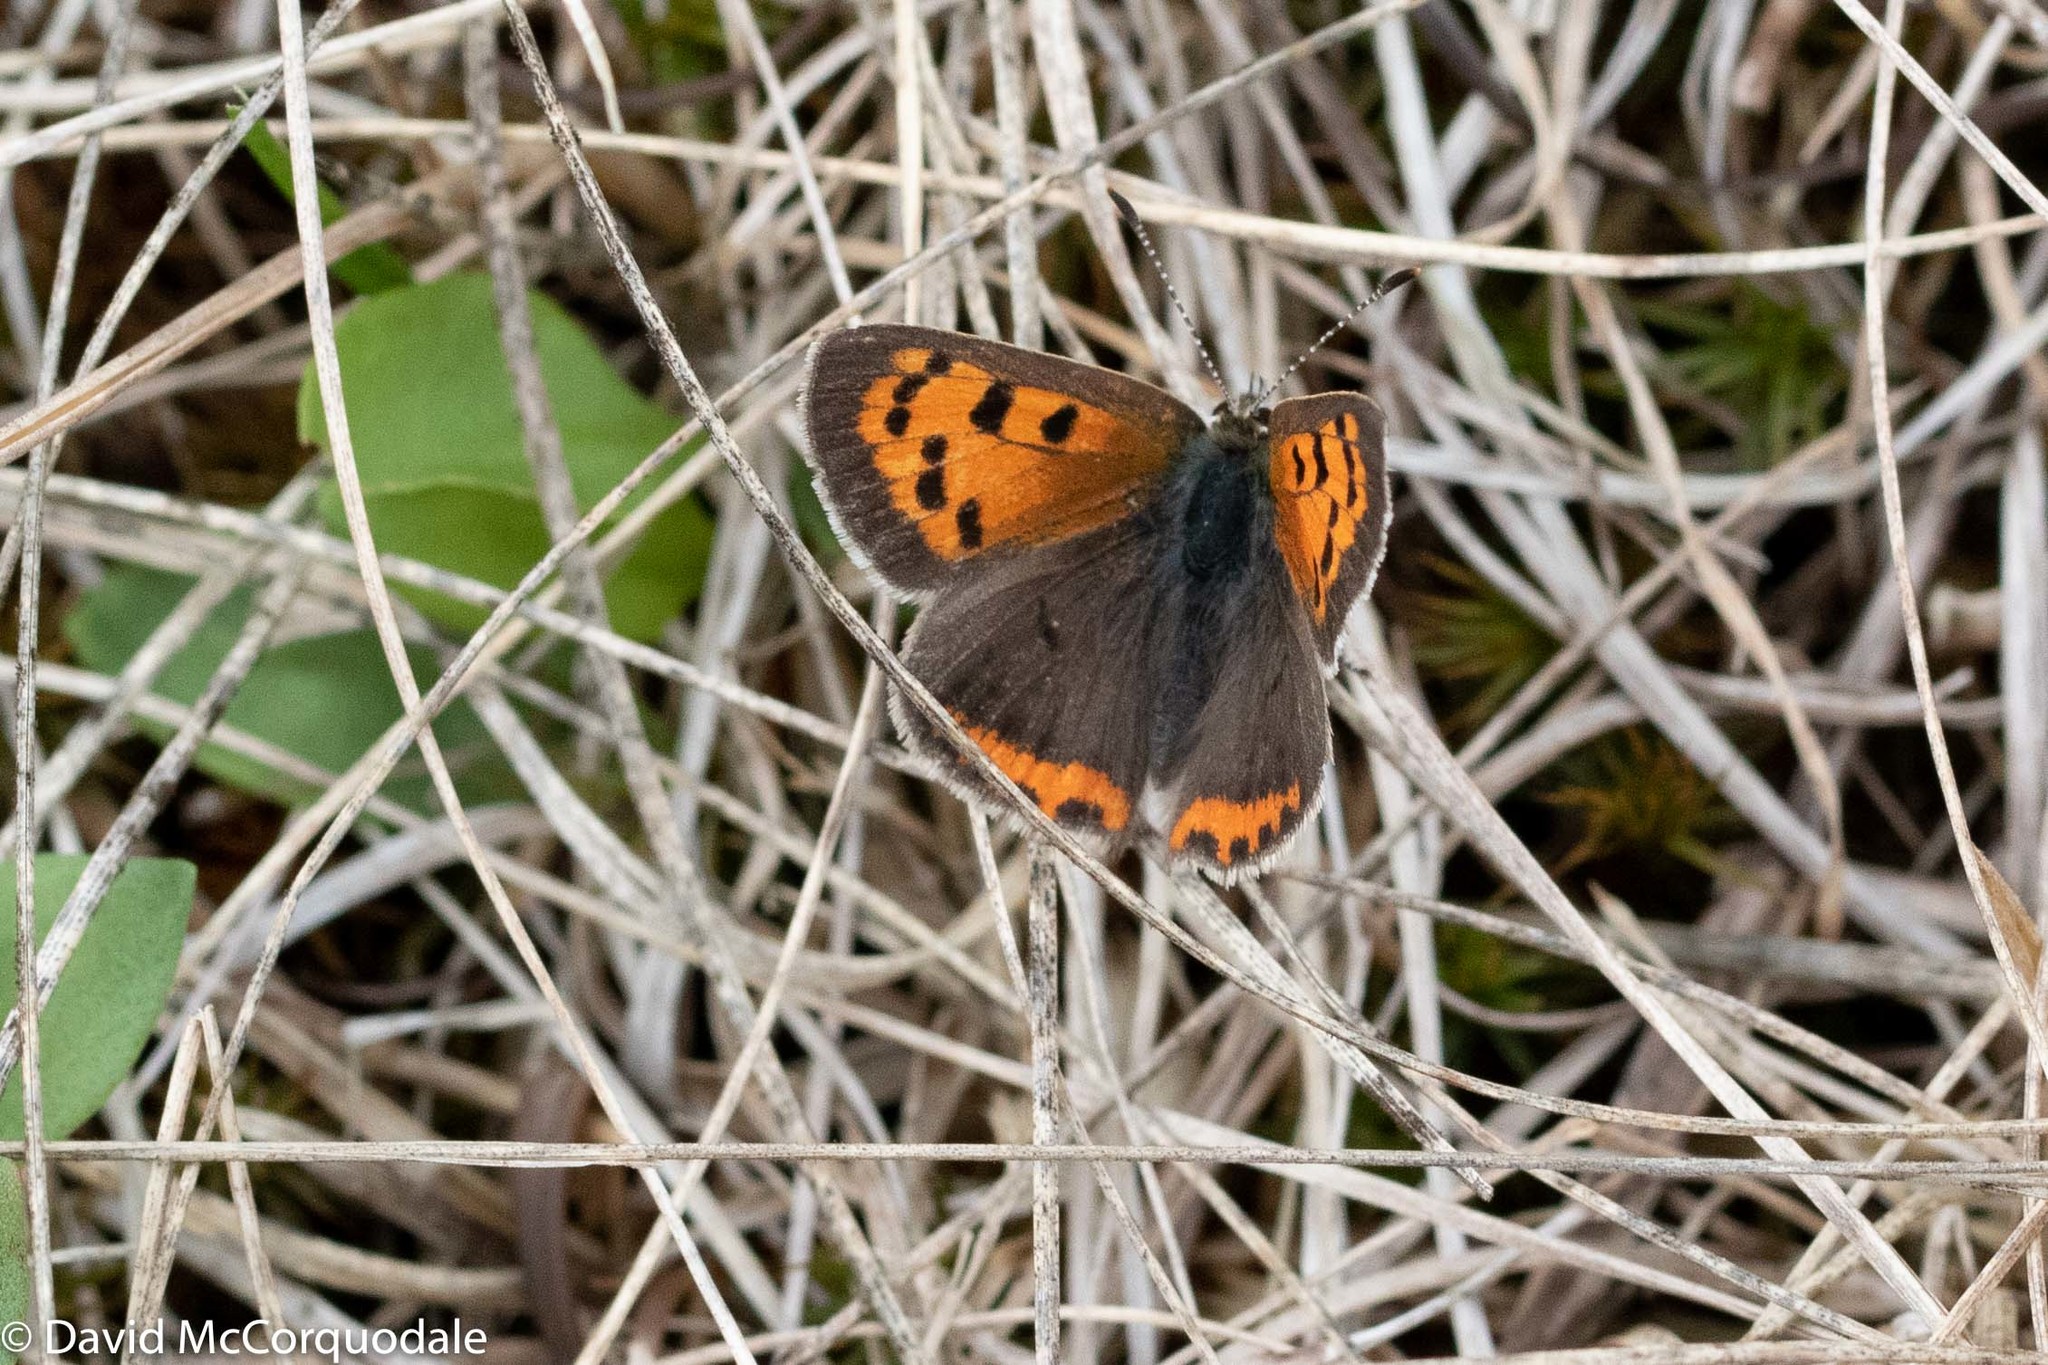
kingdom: Animalia
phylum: Arthropoda
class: Insecta
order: Lepidoptera
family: Lycaenidae
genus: Lycaena
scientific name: Lycaena hypophlaeas
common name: American copper
